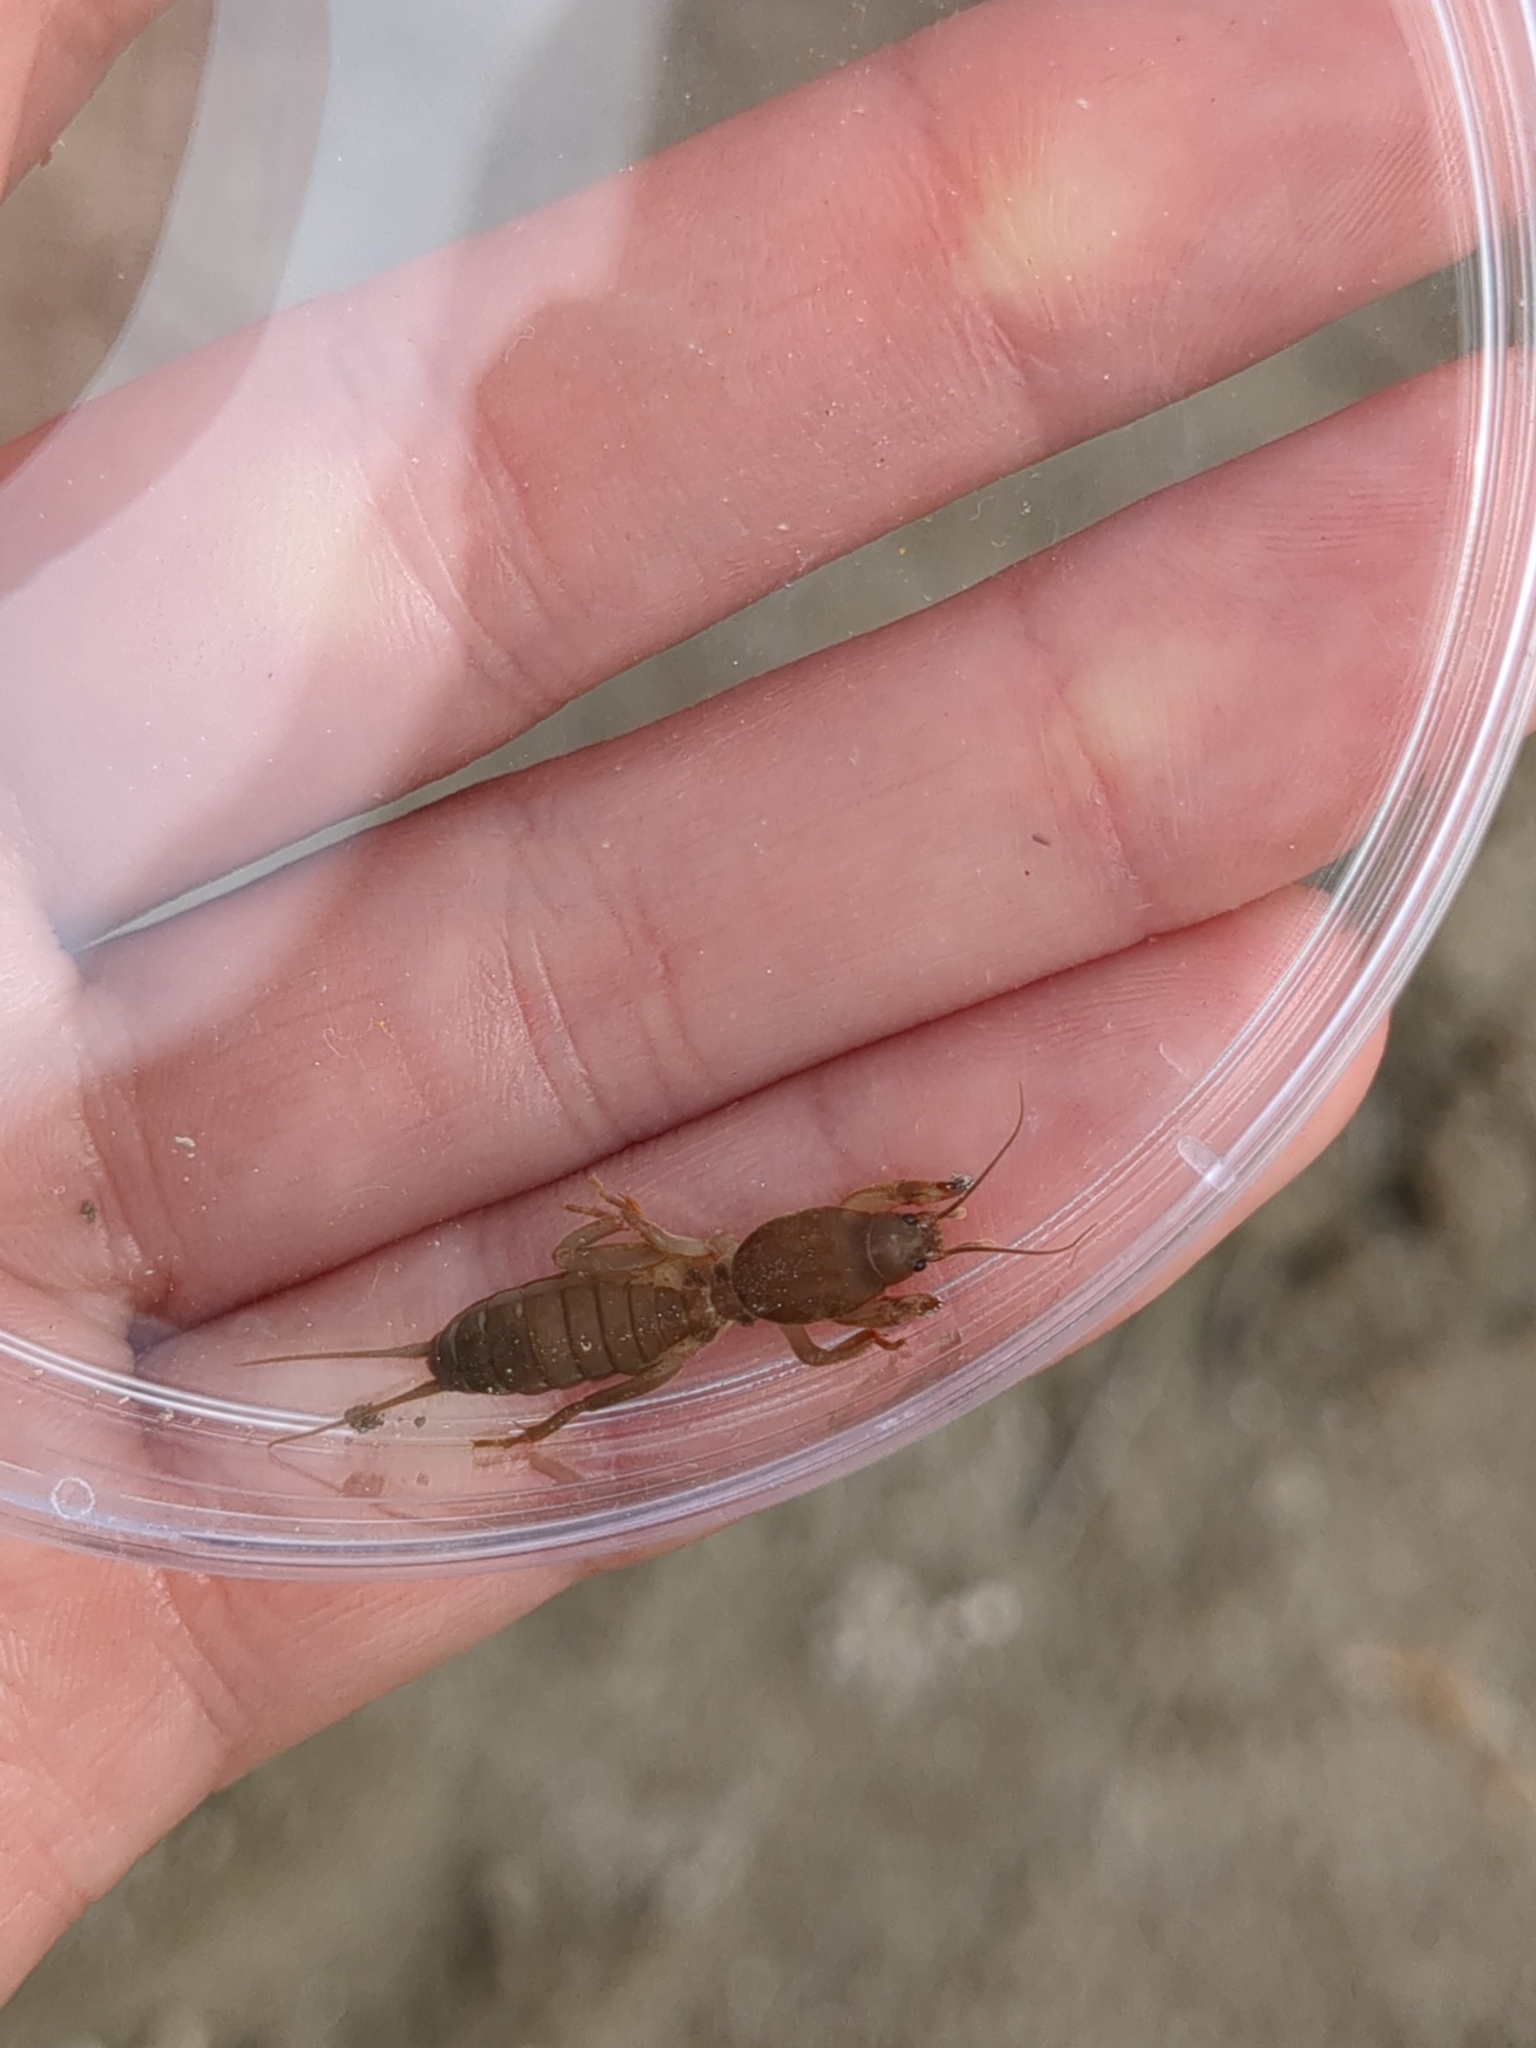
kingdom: Animalia
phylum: Arthropoda
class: Insecta
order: Orthoptera
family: Gryllotalpidae
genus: Neocurtilla
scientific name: Neocurtilla hexadactyla
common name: Northern mole cricket
